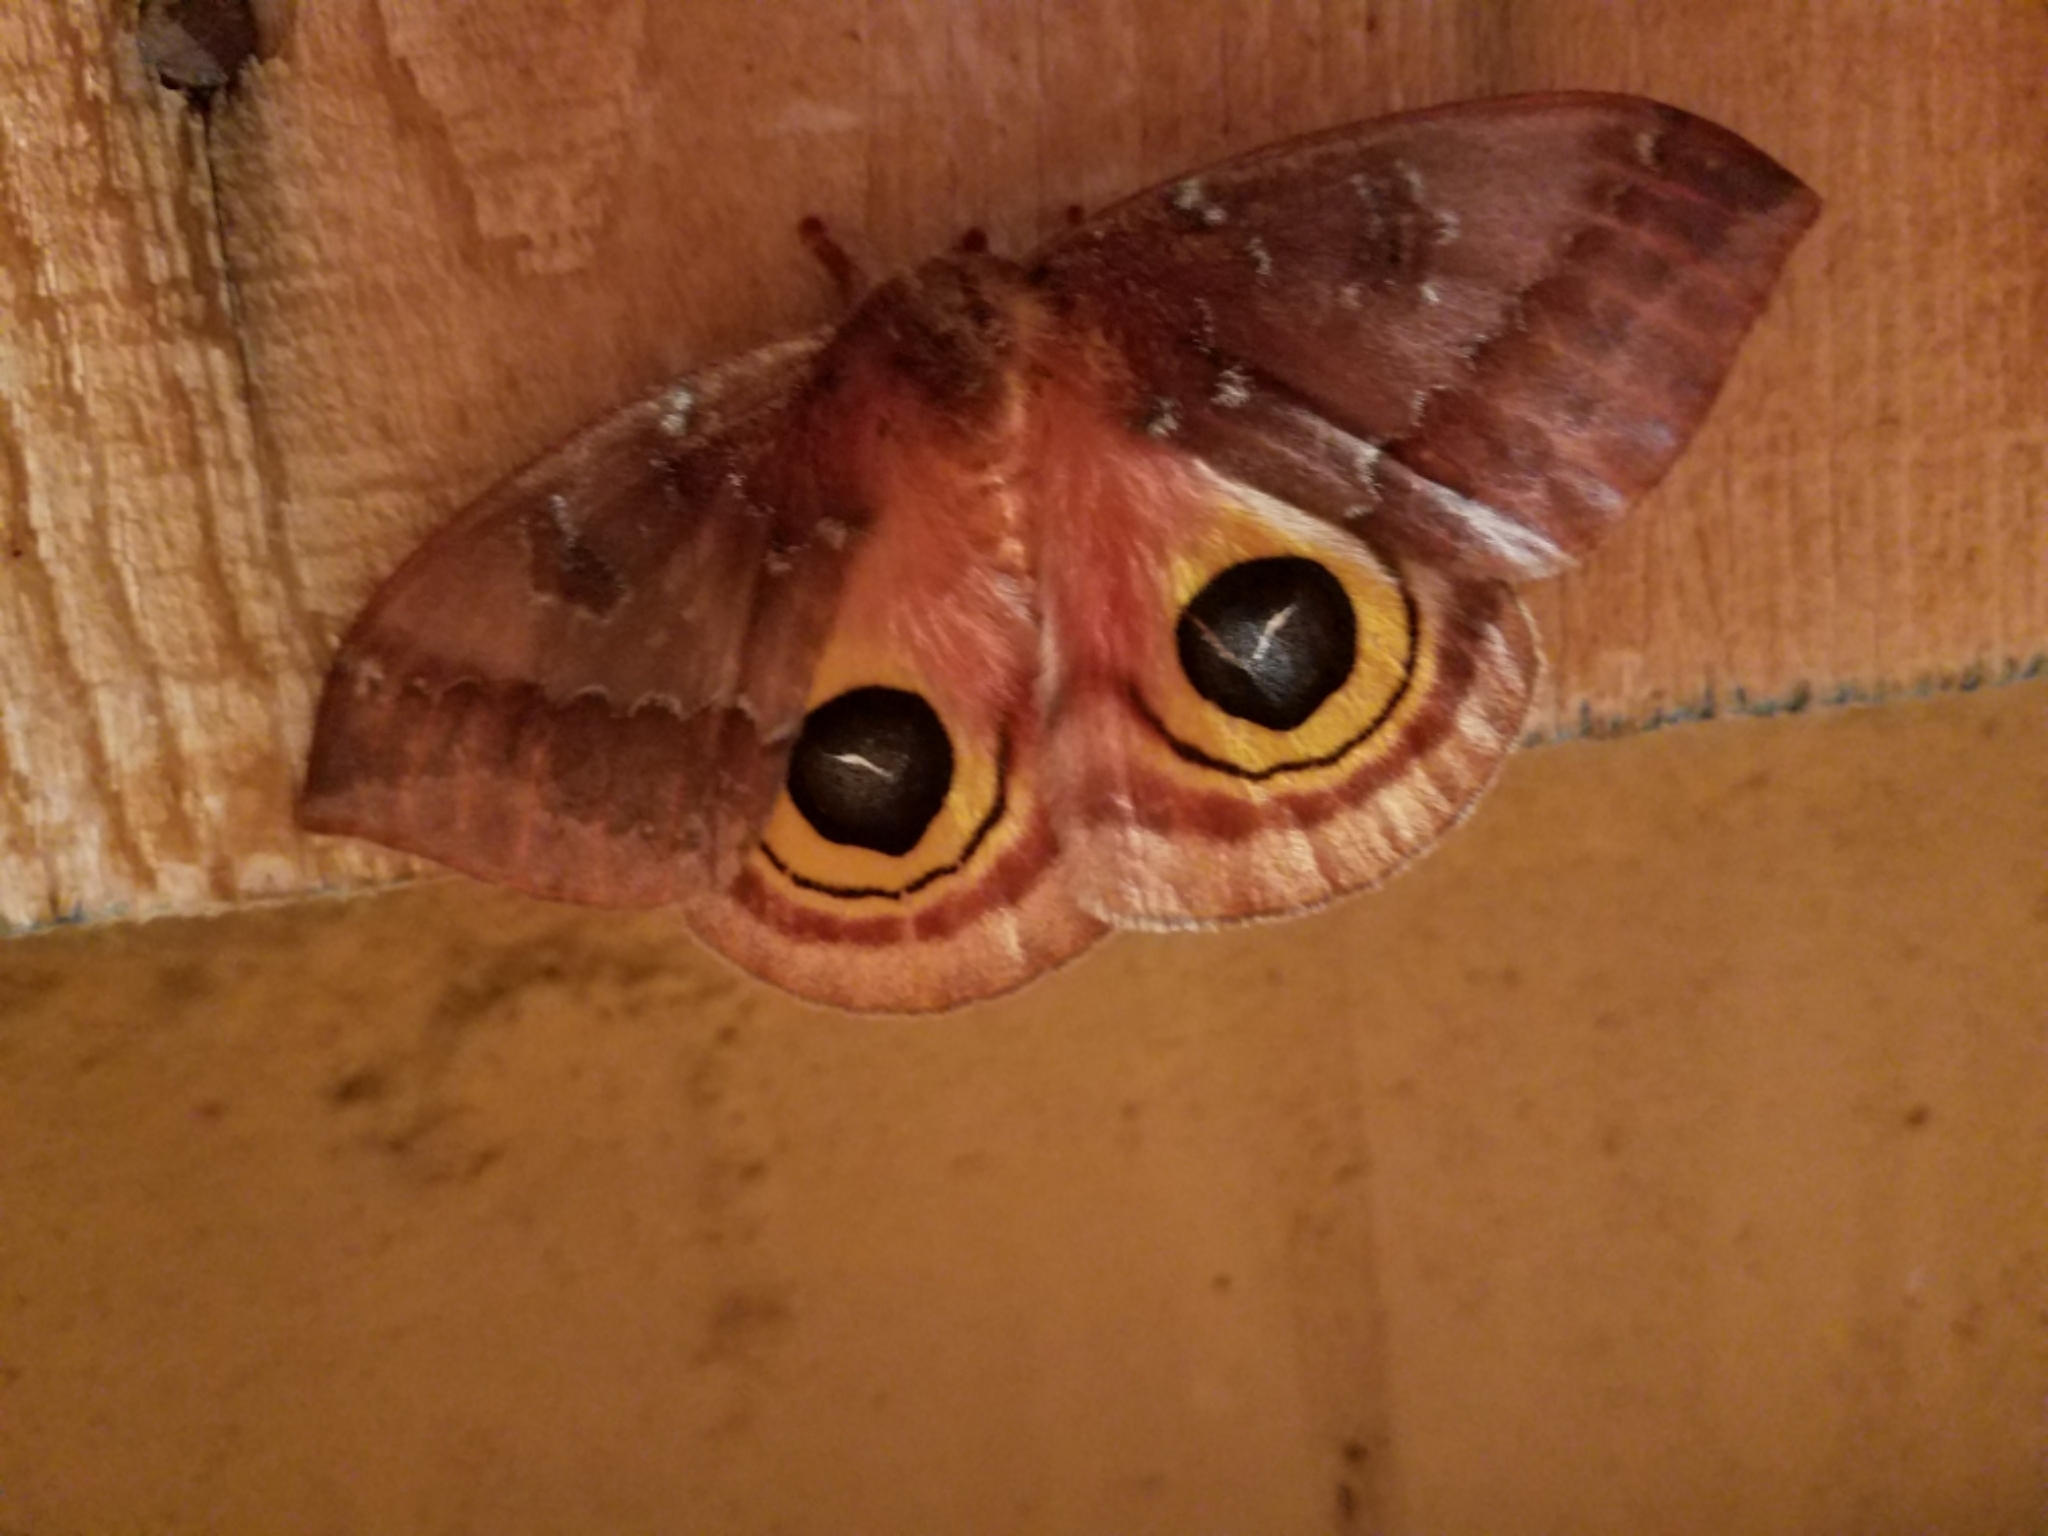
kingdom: Animalia
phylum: Arthropoda
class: Insecta
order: Lepidoptera
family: Saturniidae
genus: Automeris
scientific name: Automeris io
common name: Io moth
